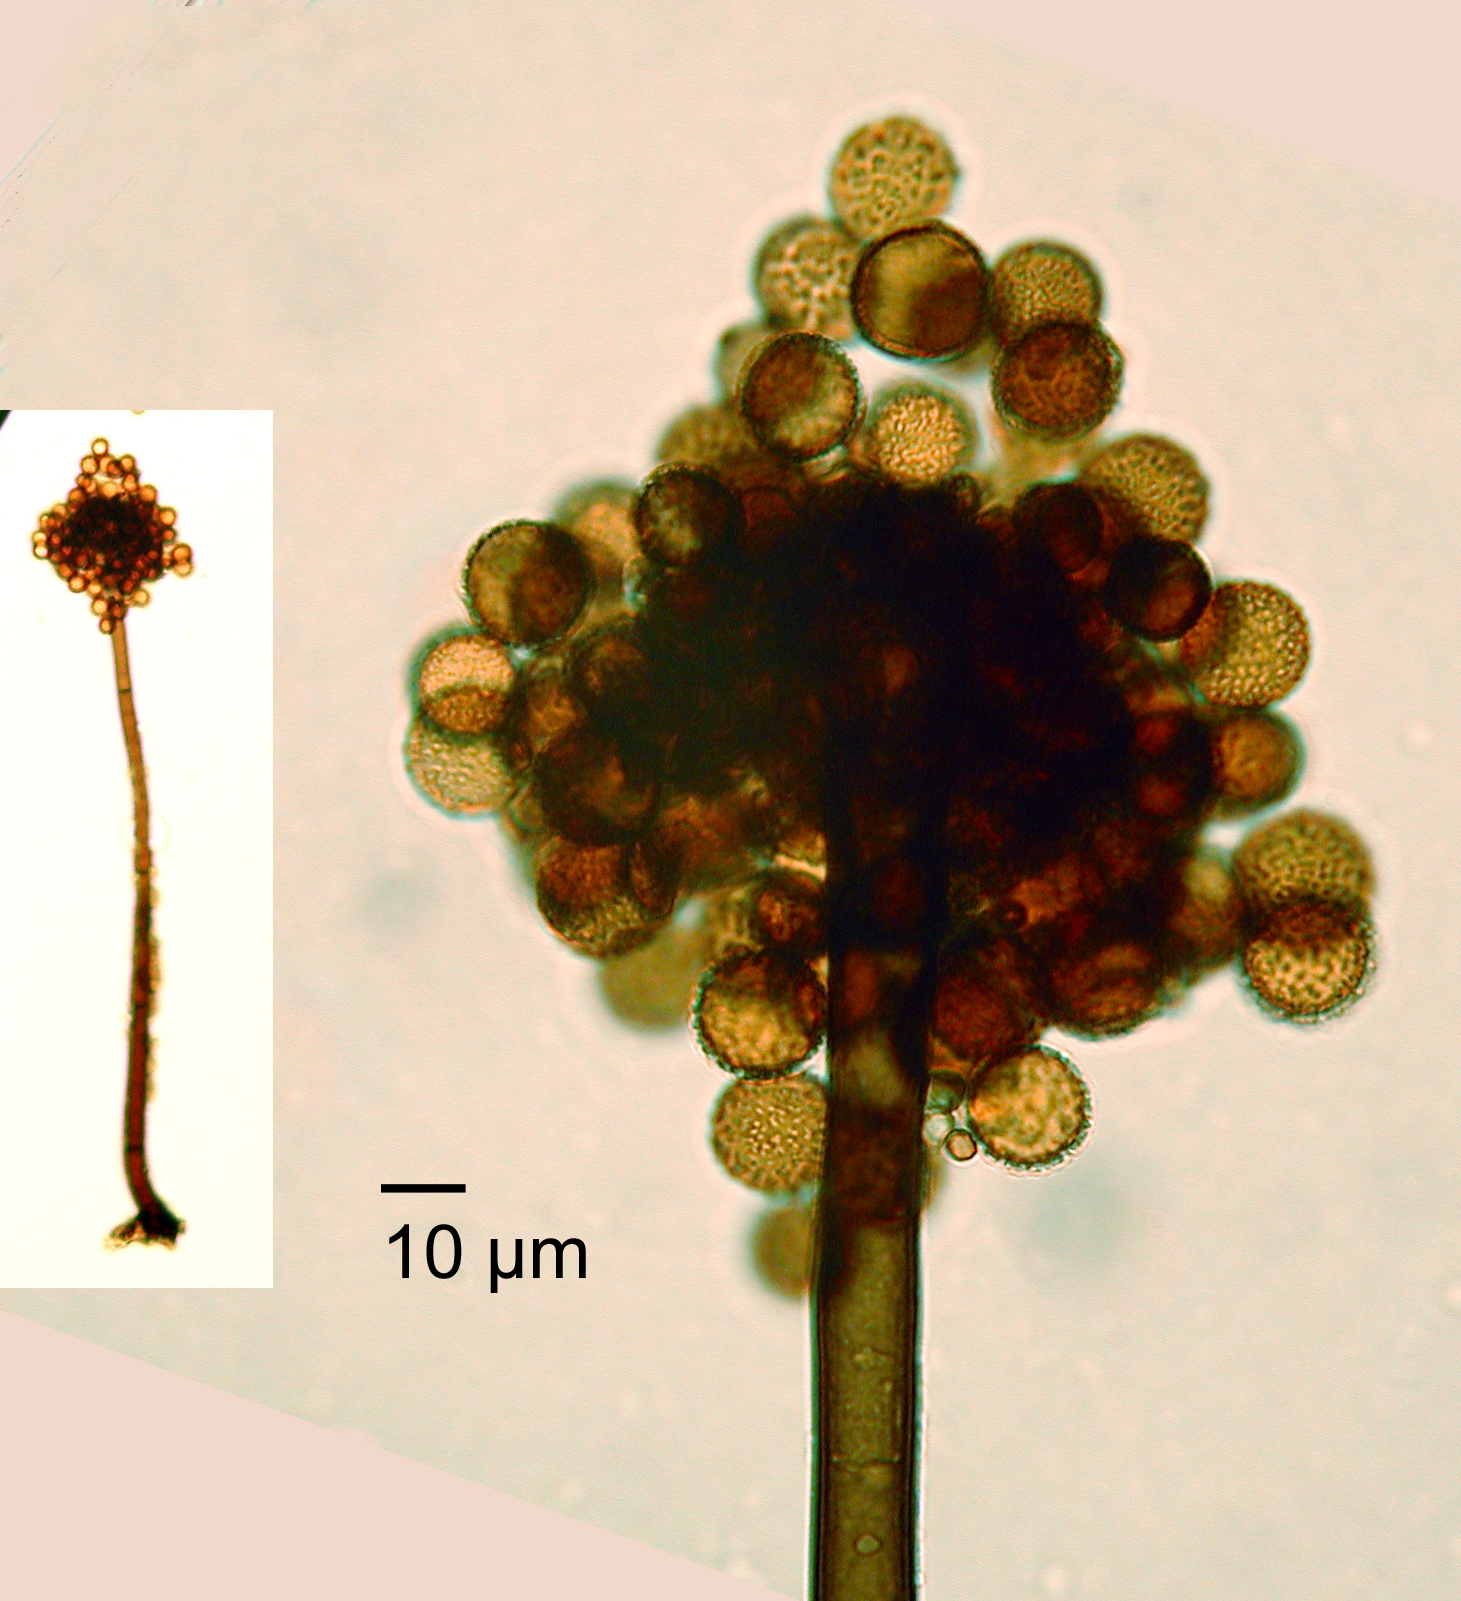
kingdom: Fungi
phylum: Ascomycota
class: Dothideomycetes
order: Pleosporales
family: Periconiaceae
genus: Periconia
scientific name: Periconia byssoides
